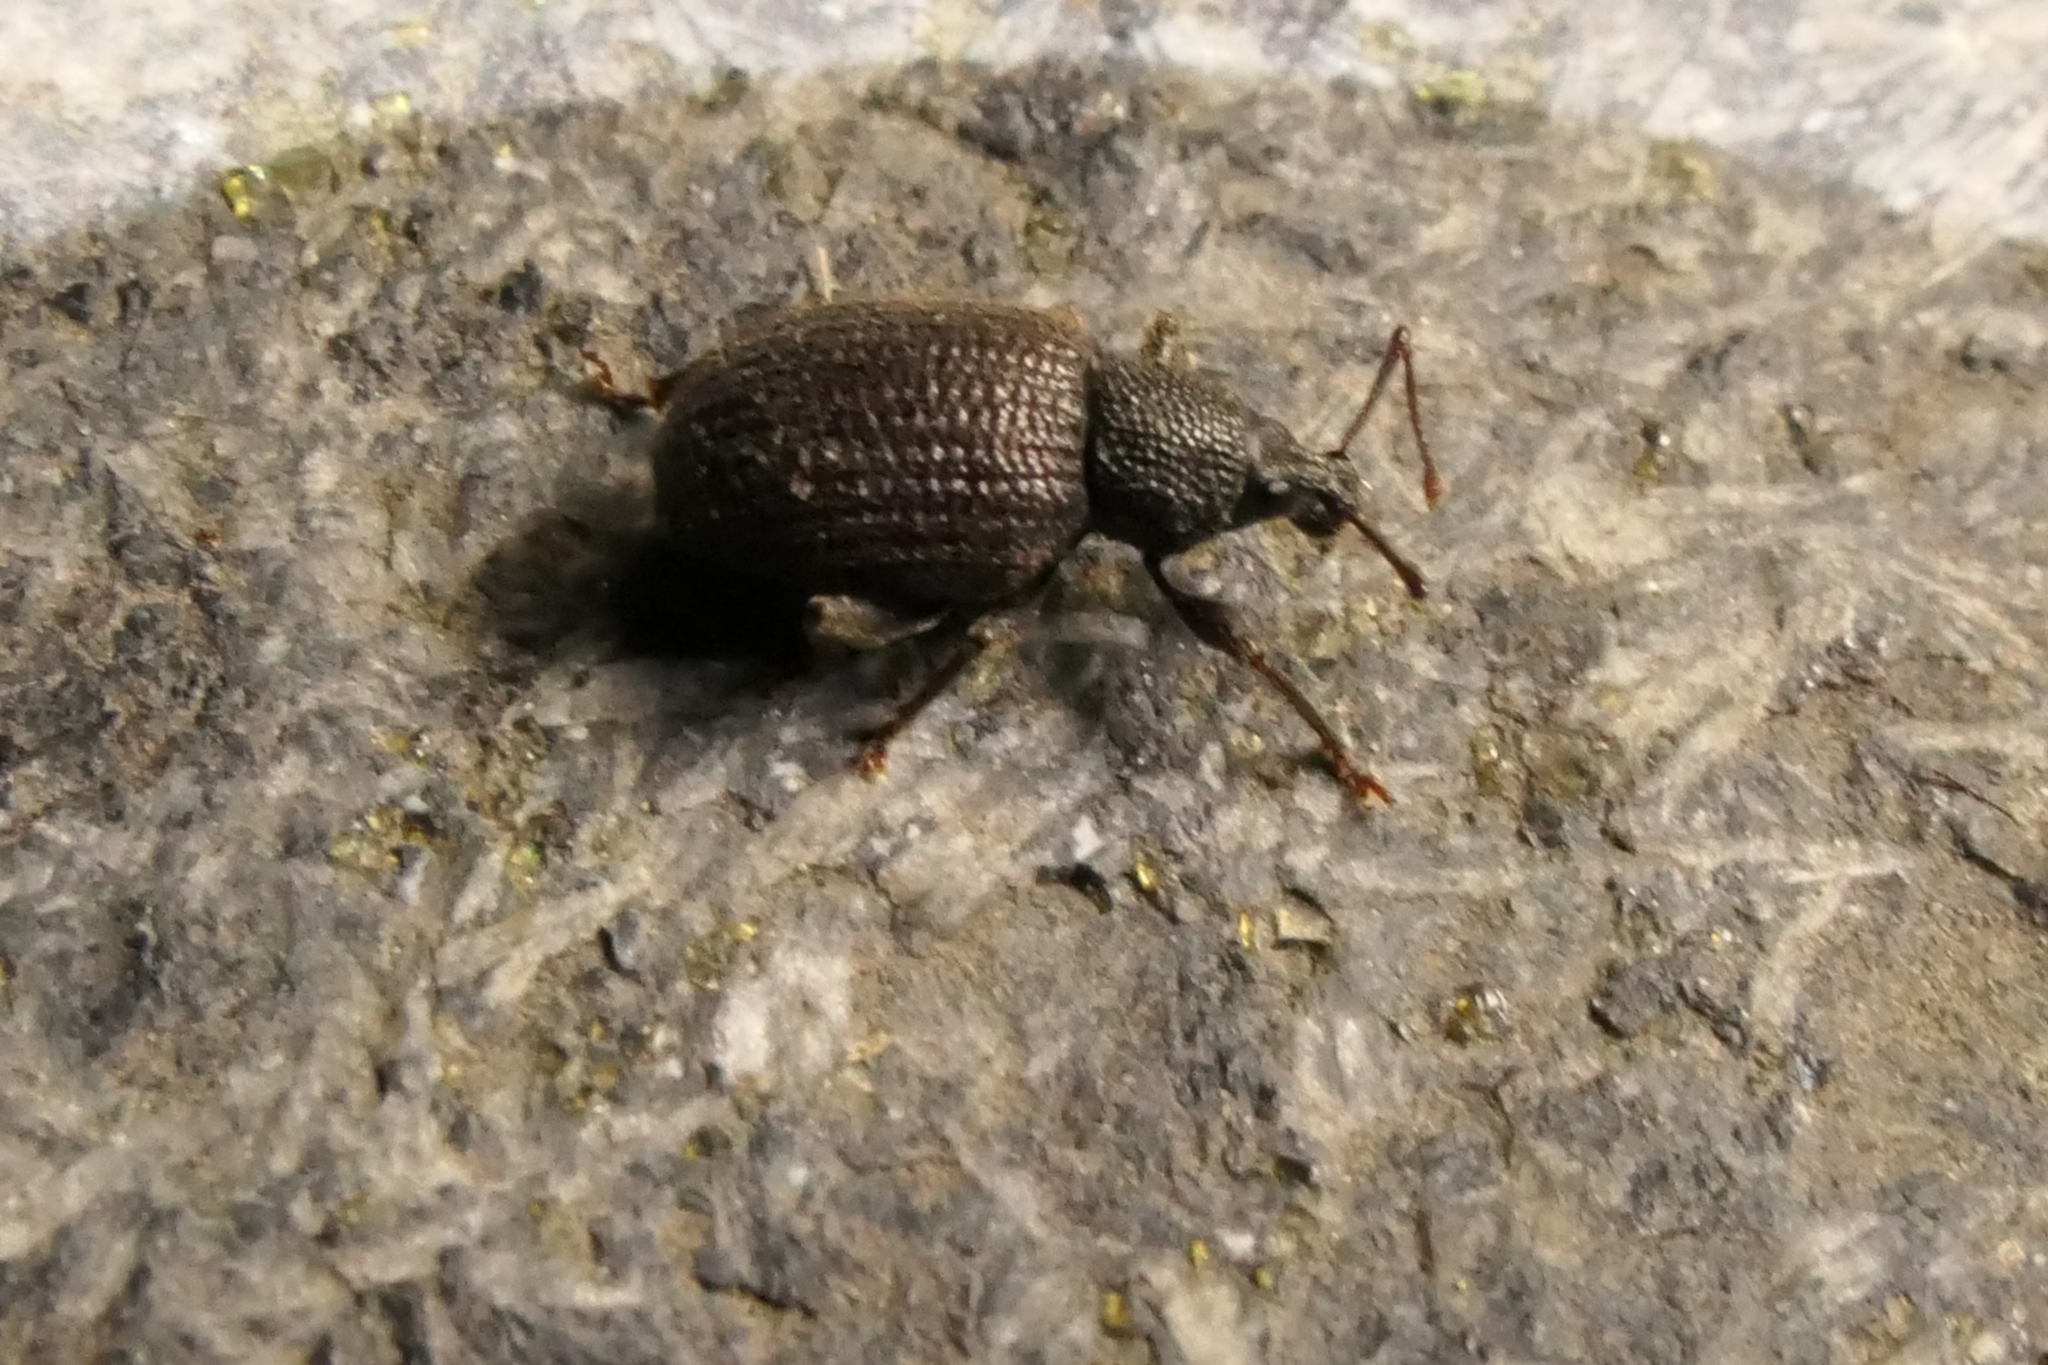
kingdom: Animalia
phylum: Arthropoda
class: Insecta
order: Coleoptera
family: Curculionidae
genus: Otiorhynchus
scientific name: Otiorhynchus rugosostriatus
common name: Weevil
